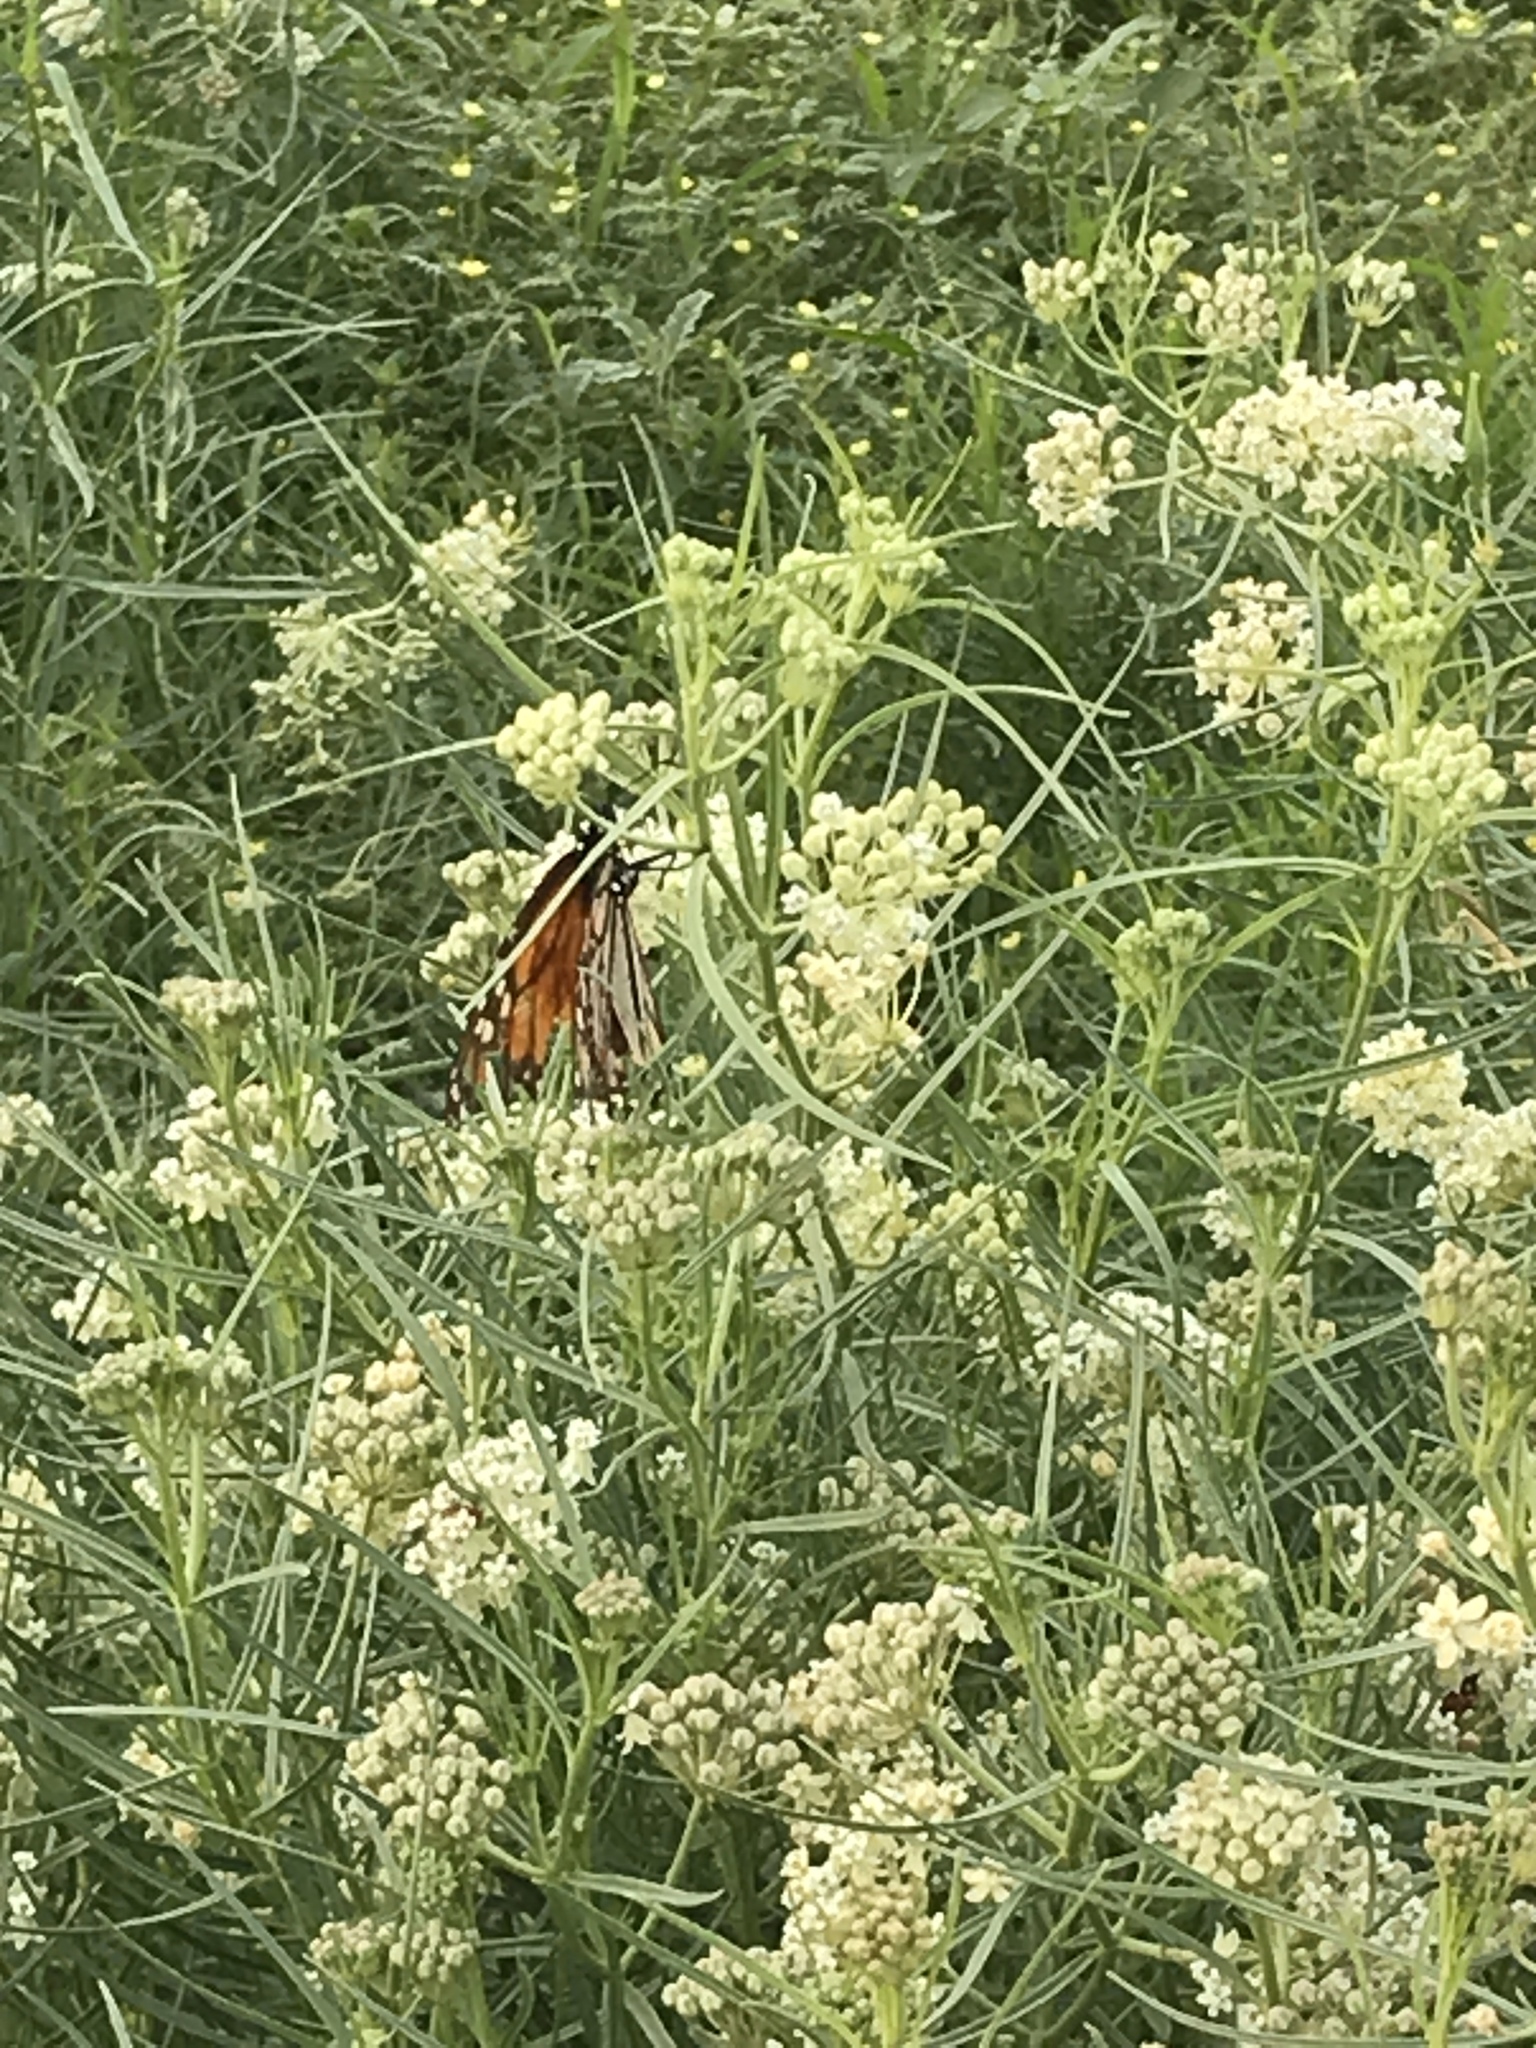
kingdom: Animalia
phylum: Arthropoda
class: Insecta
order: Lepidoptera
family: Nymphalidae
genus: Danaus
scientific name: Danaus plexippus
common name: Monarch
